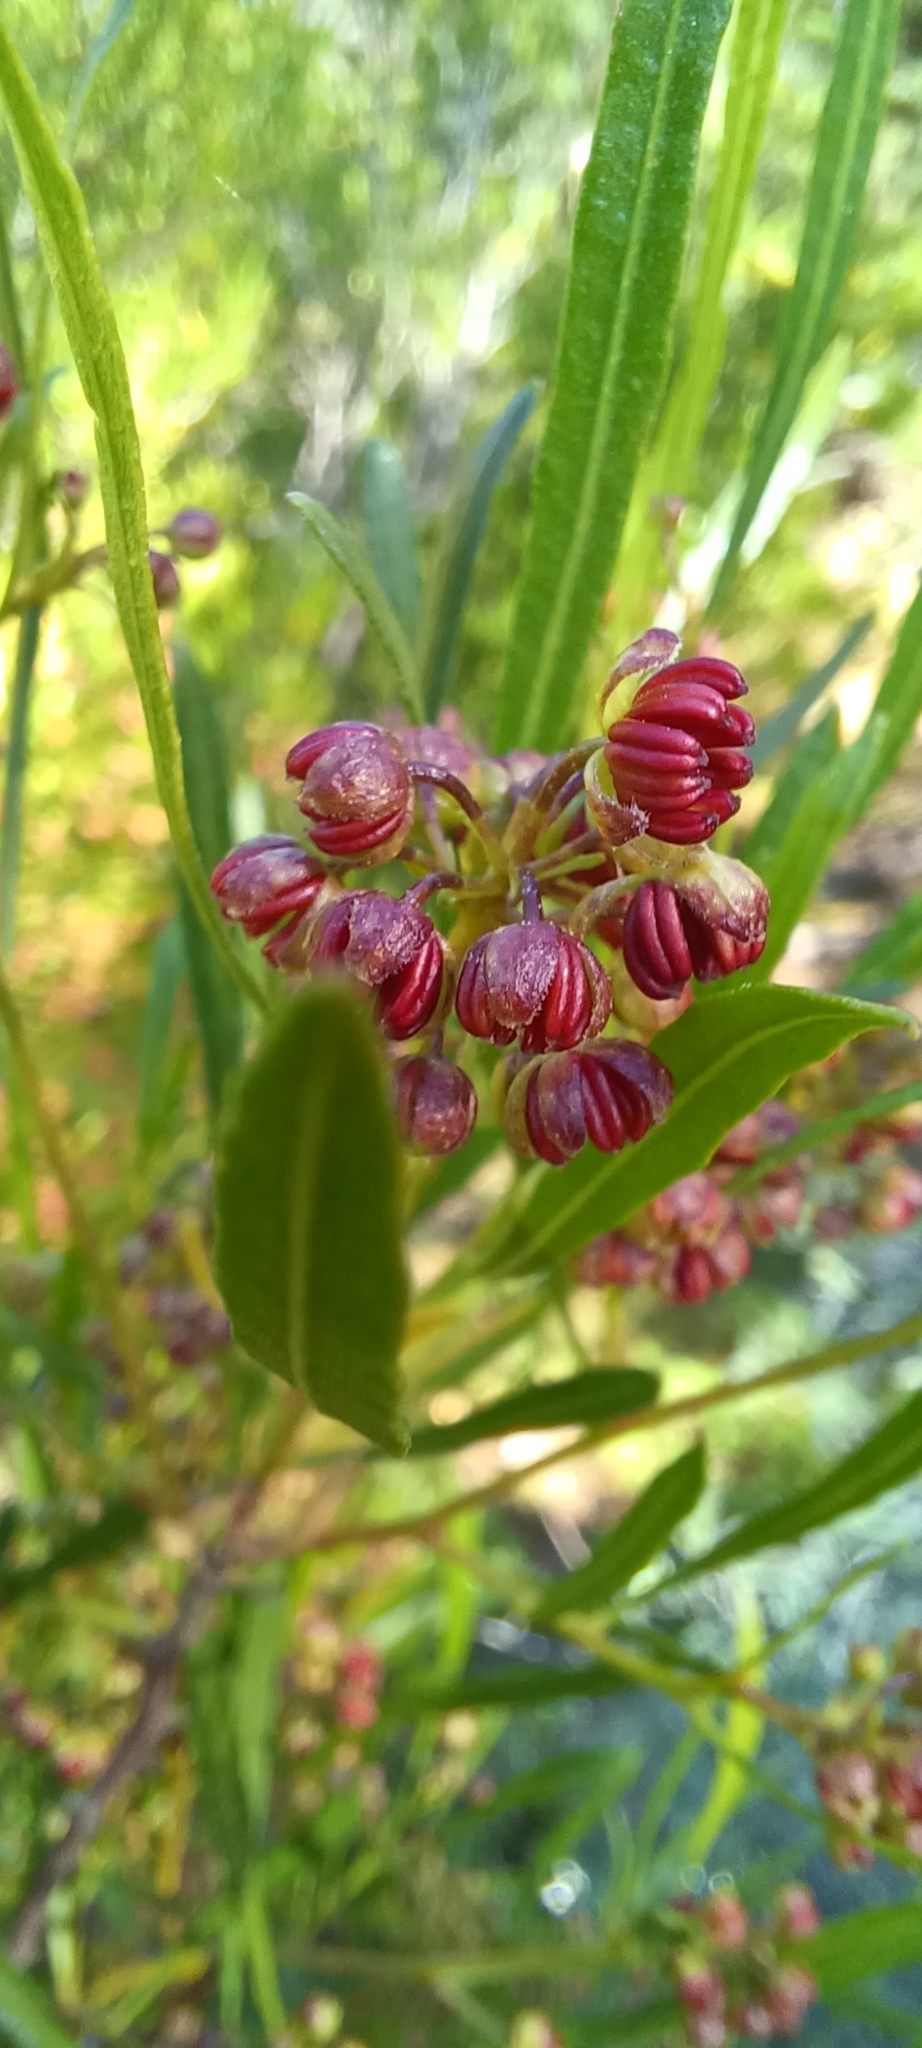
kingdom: Plantae
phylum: Tracheophyta
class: Magnoliopsida
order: Sapindales
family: Sapindaceae
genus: Dodonaea
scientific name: Dodonaea viscosa
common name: Hopbush
